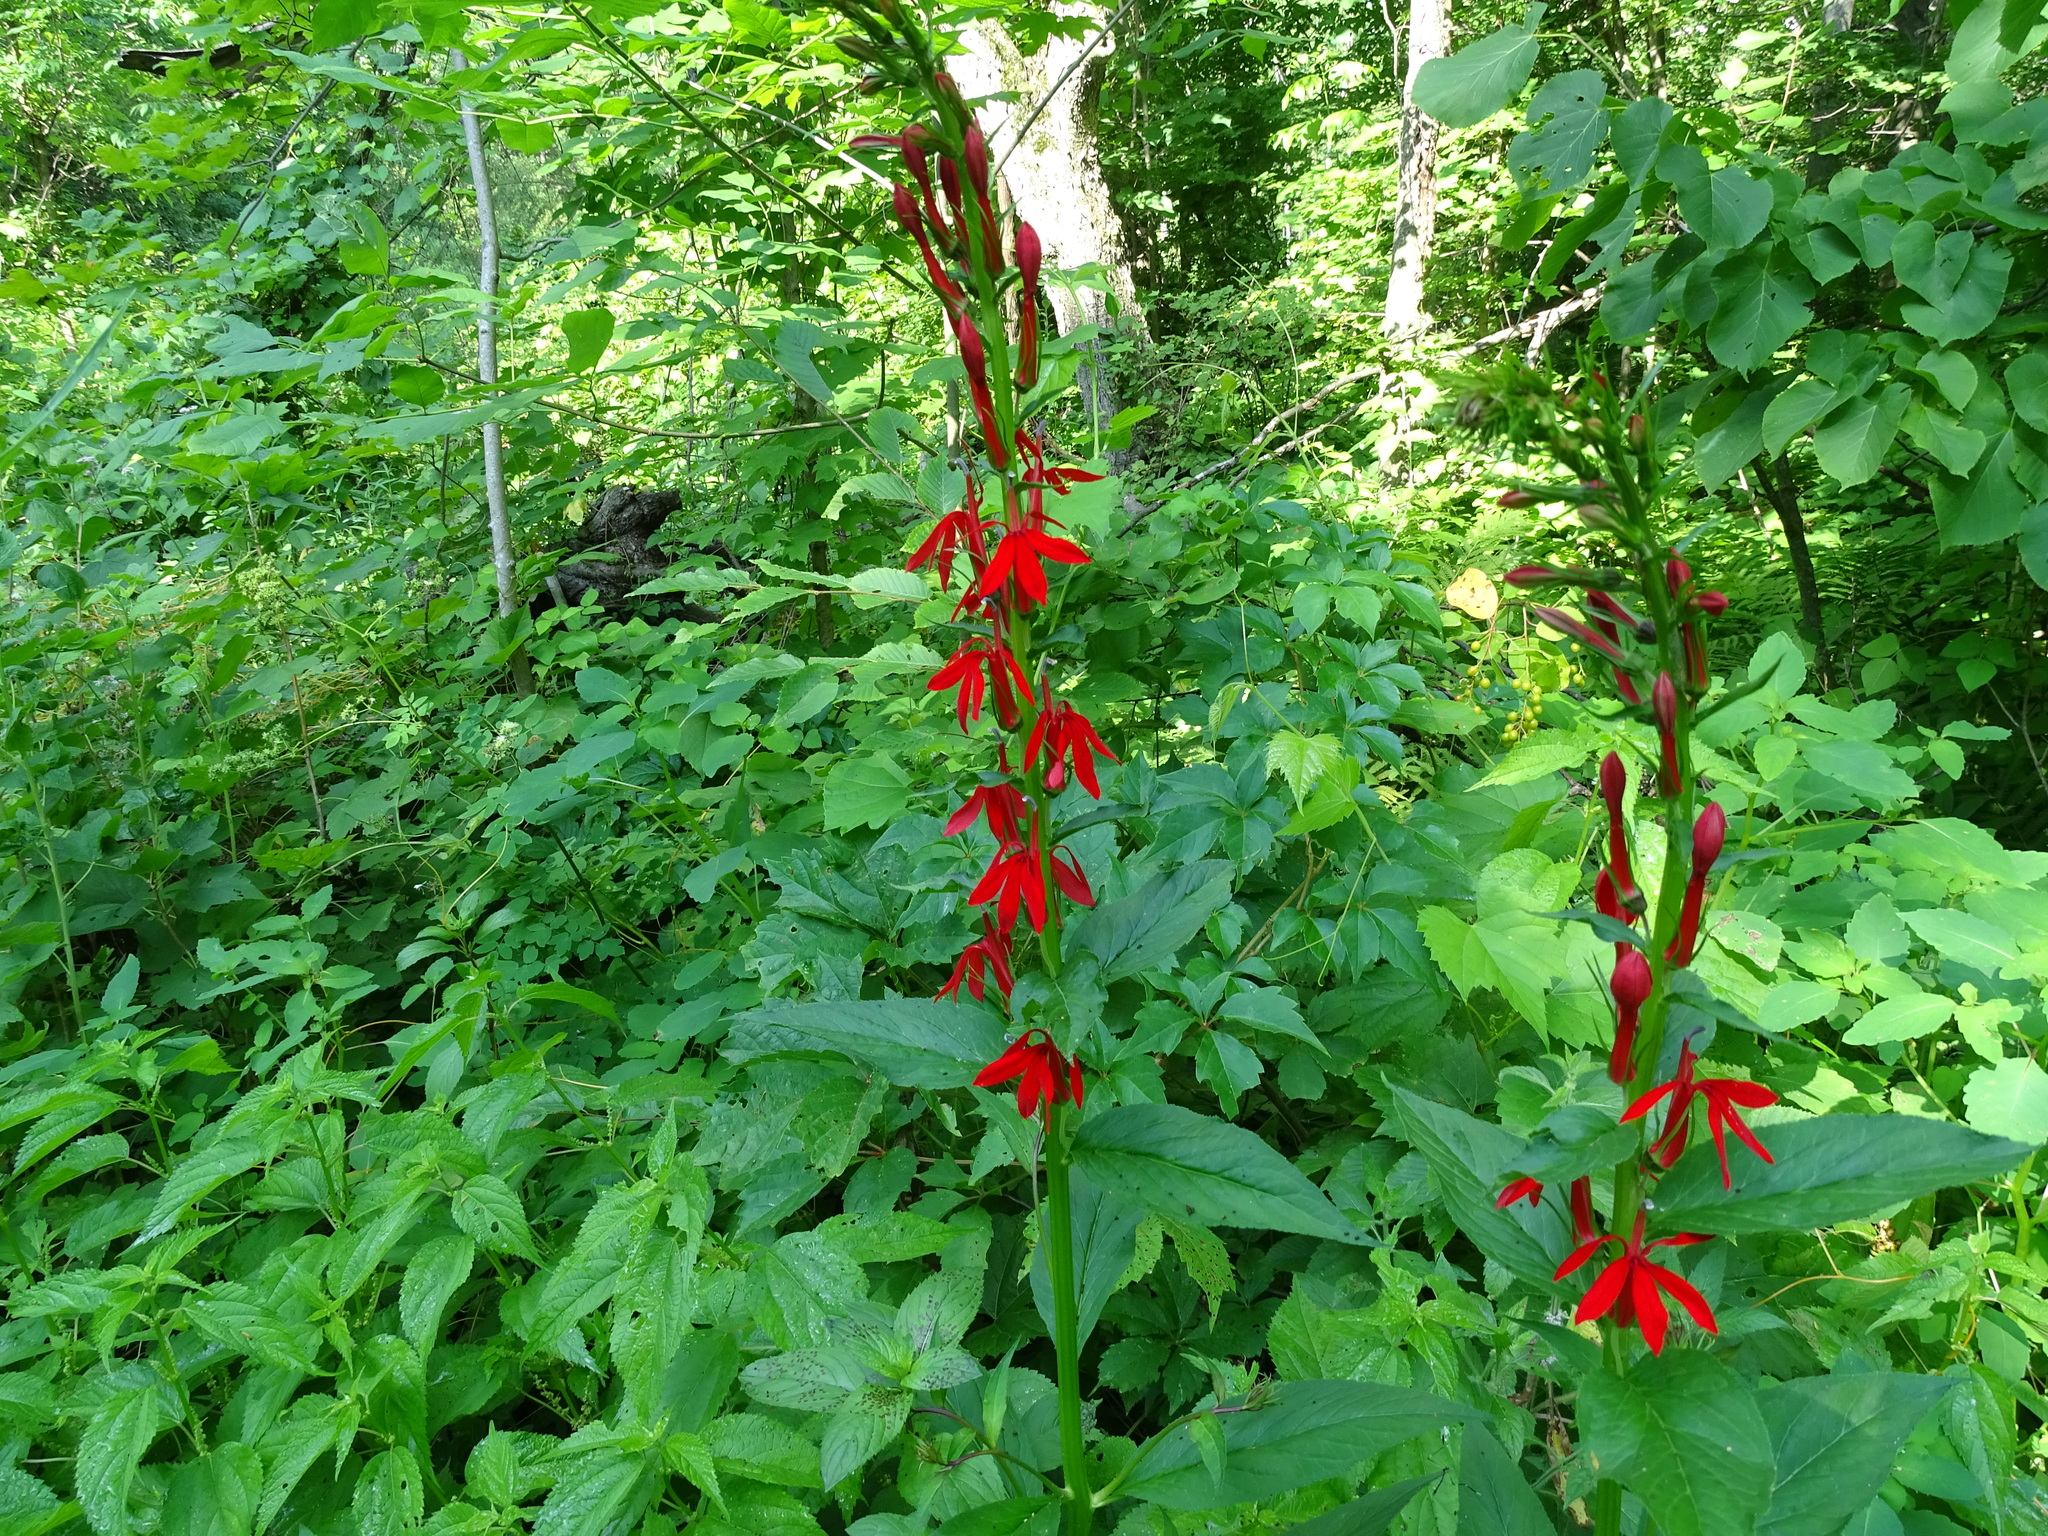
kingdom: Plantae
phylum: Tracheophyta
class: Magnoliopsida
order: Asterales
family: Campanulaceae
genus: Lobelia
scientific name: Lobelia cardinalis
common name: Cardinal flower
